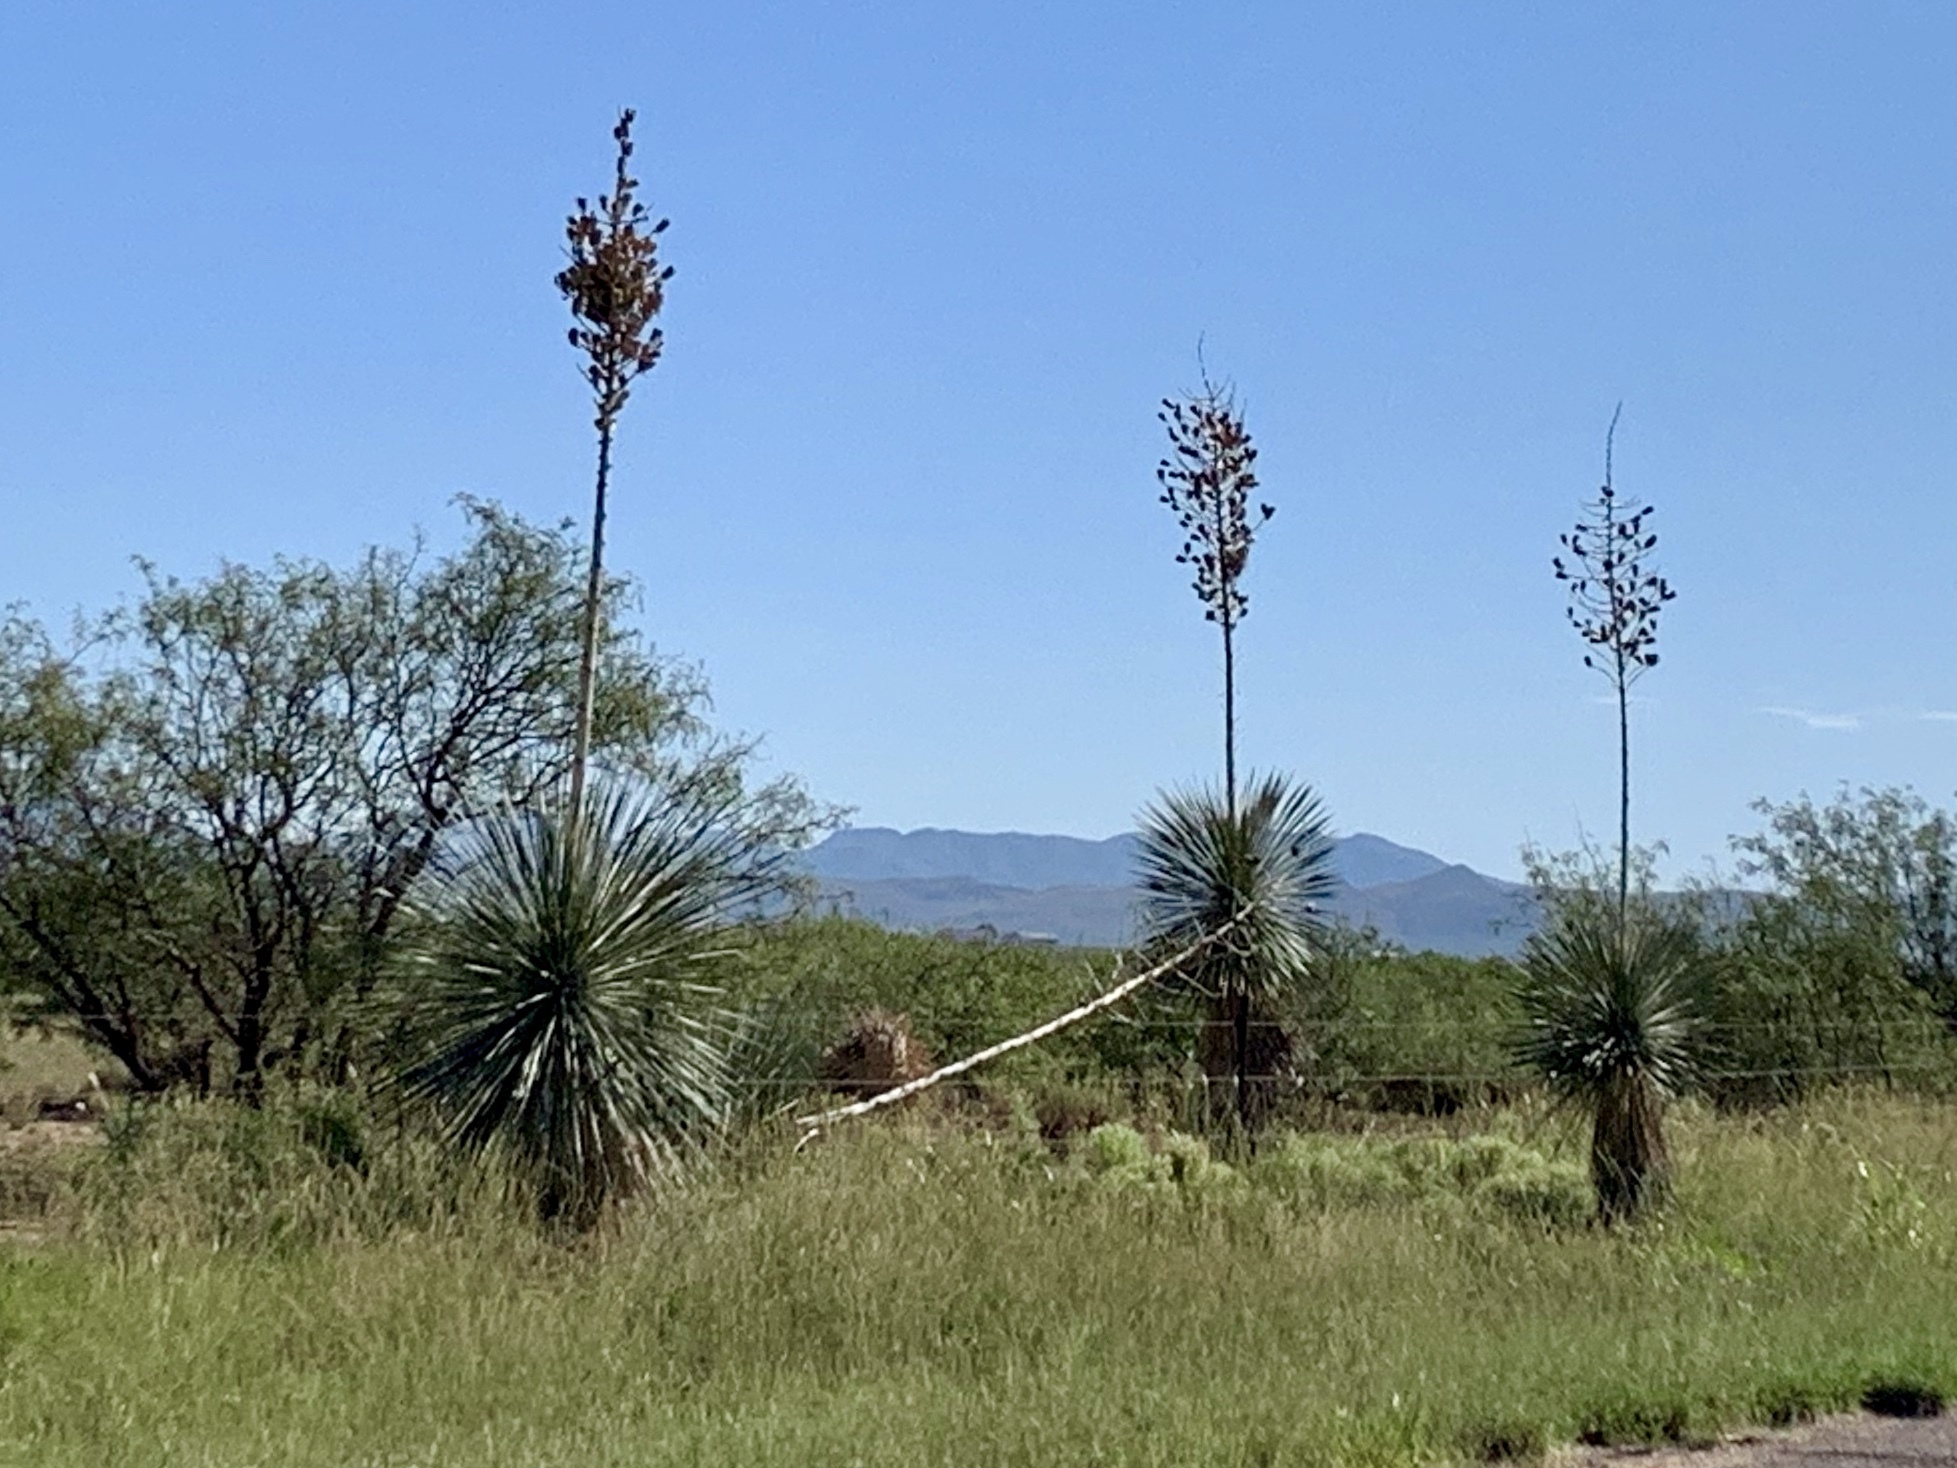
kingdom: Plantae
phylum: Tracheophyta
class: Liliopsida
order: Asparagales
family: Asparagaceae
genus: Yucca
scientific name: Yucca elata
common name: Palmella
